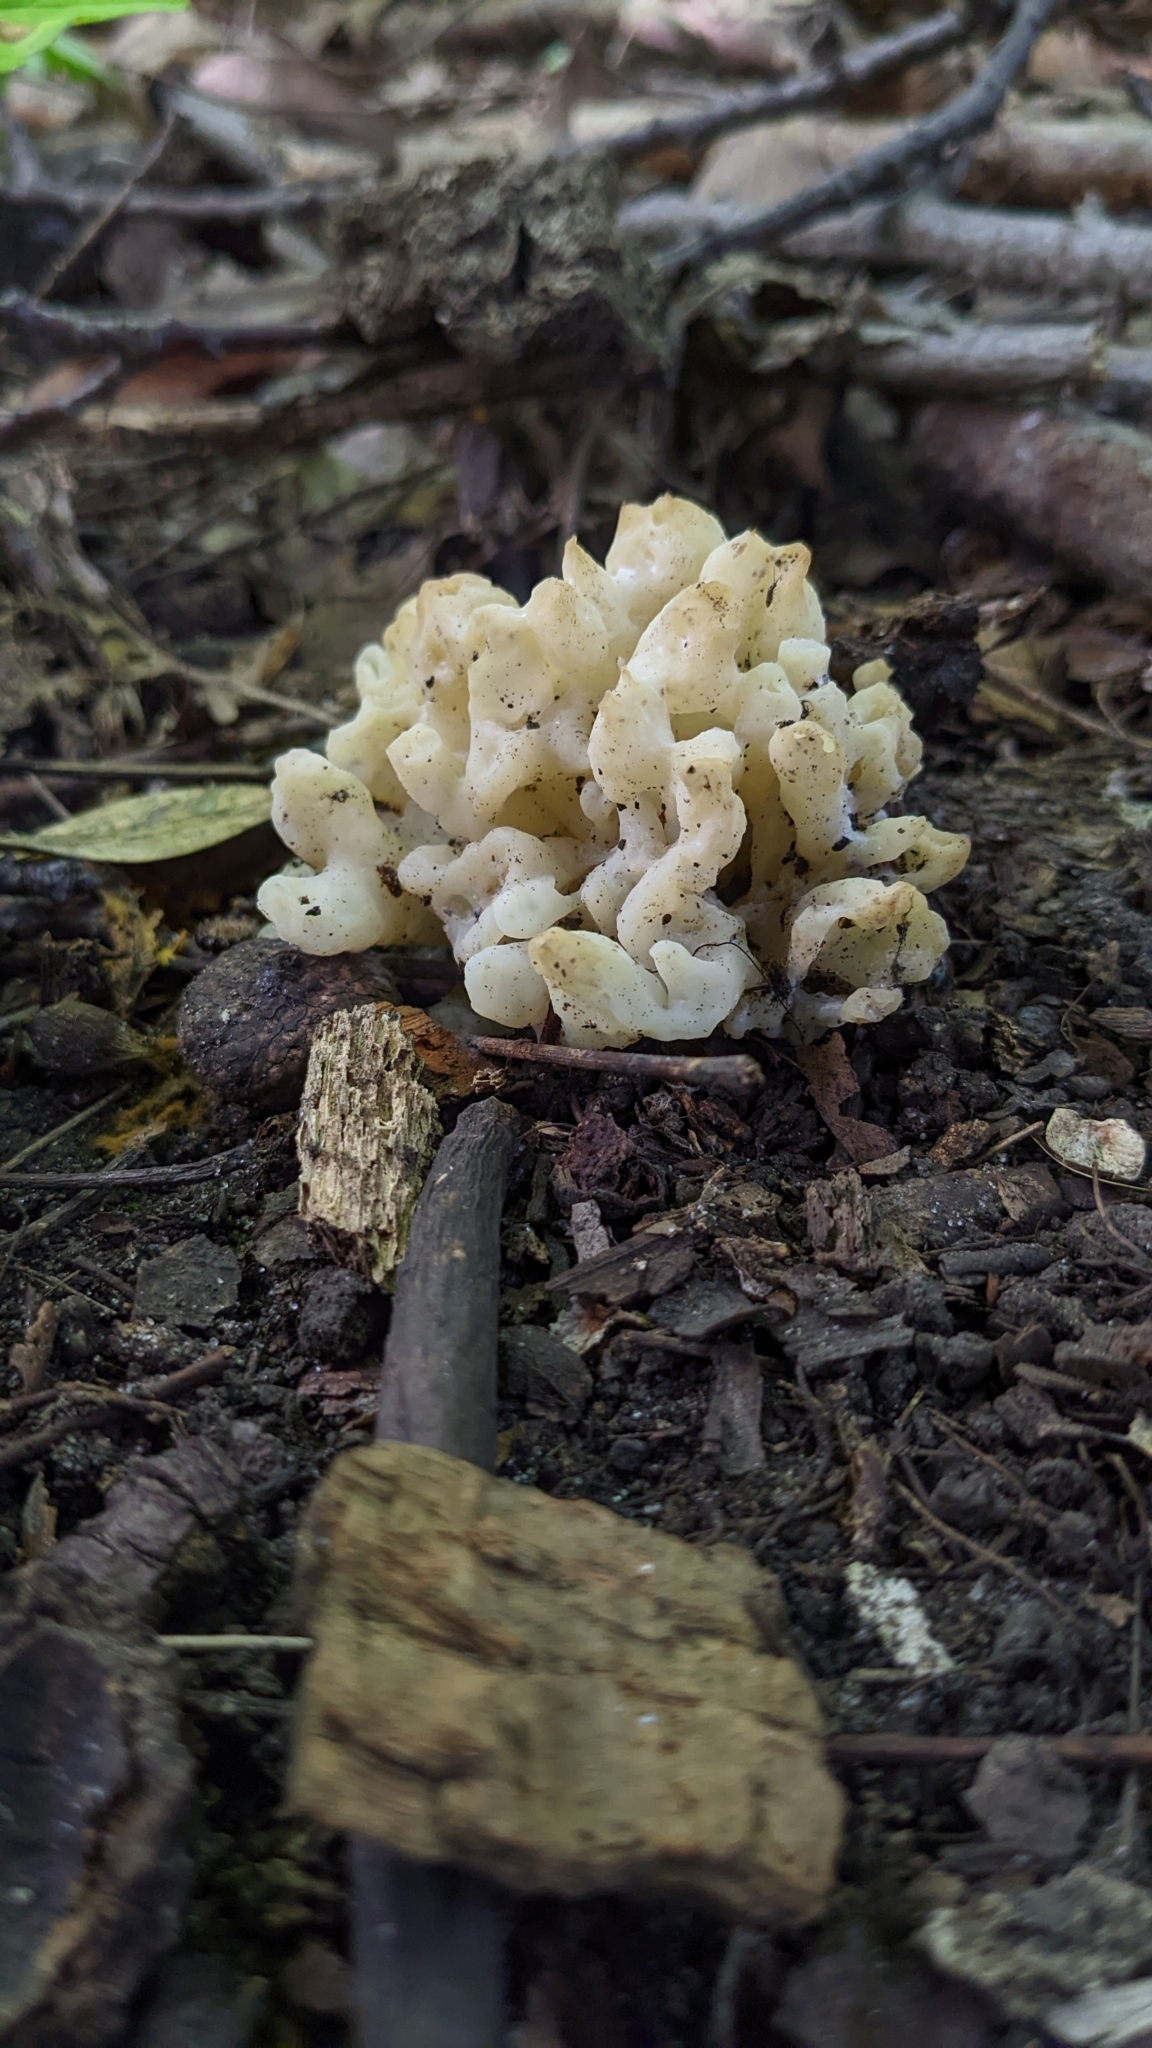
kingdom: Fungi
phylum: Basidiomycota
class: Agaricomycetes
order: Sebacinales
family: Sebacinaceae
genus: Sebacina
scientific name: Sebacina sparassoidea
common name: White coral jelly fungus
